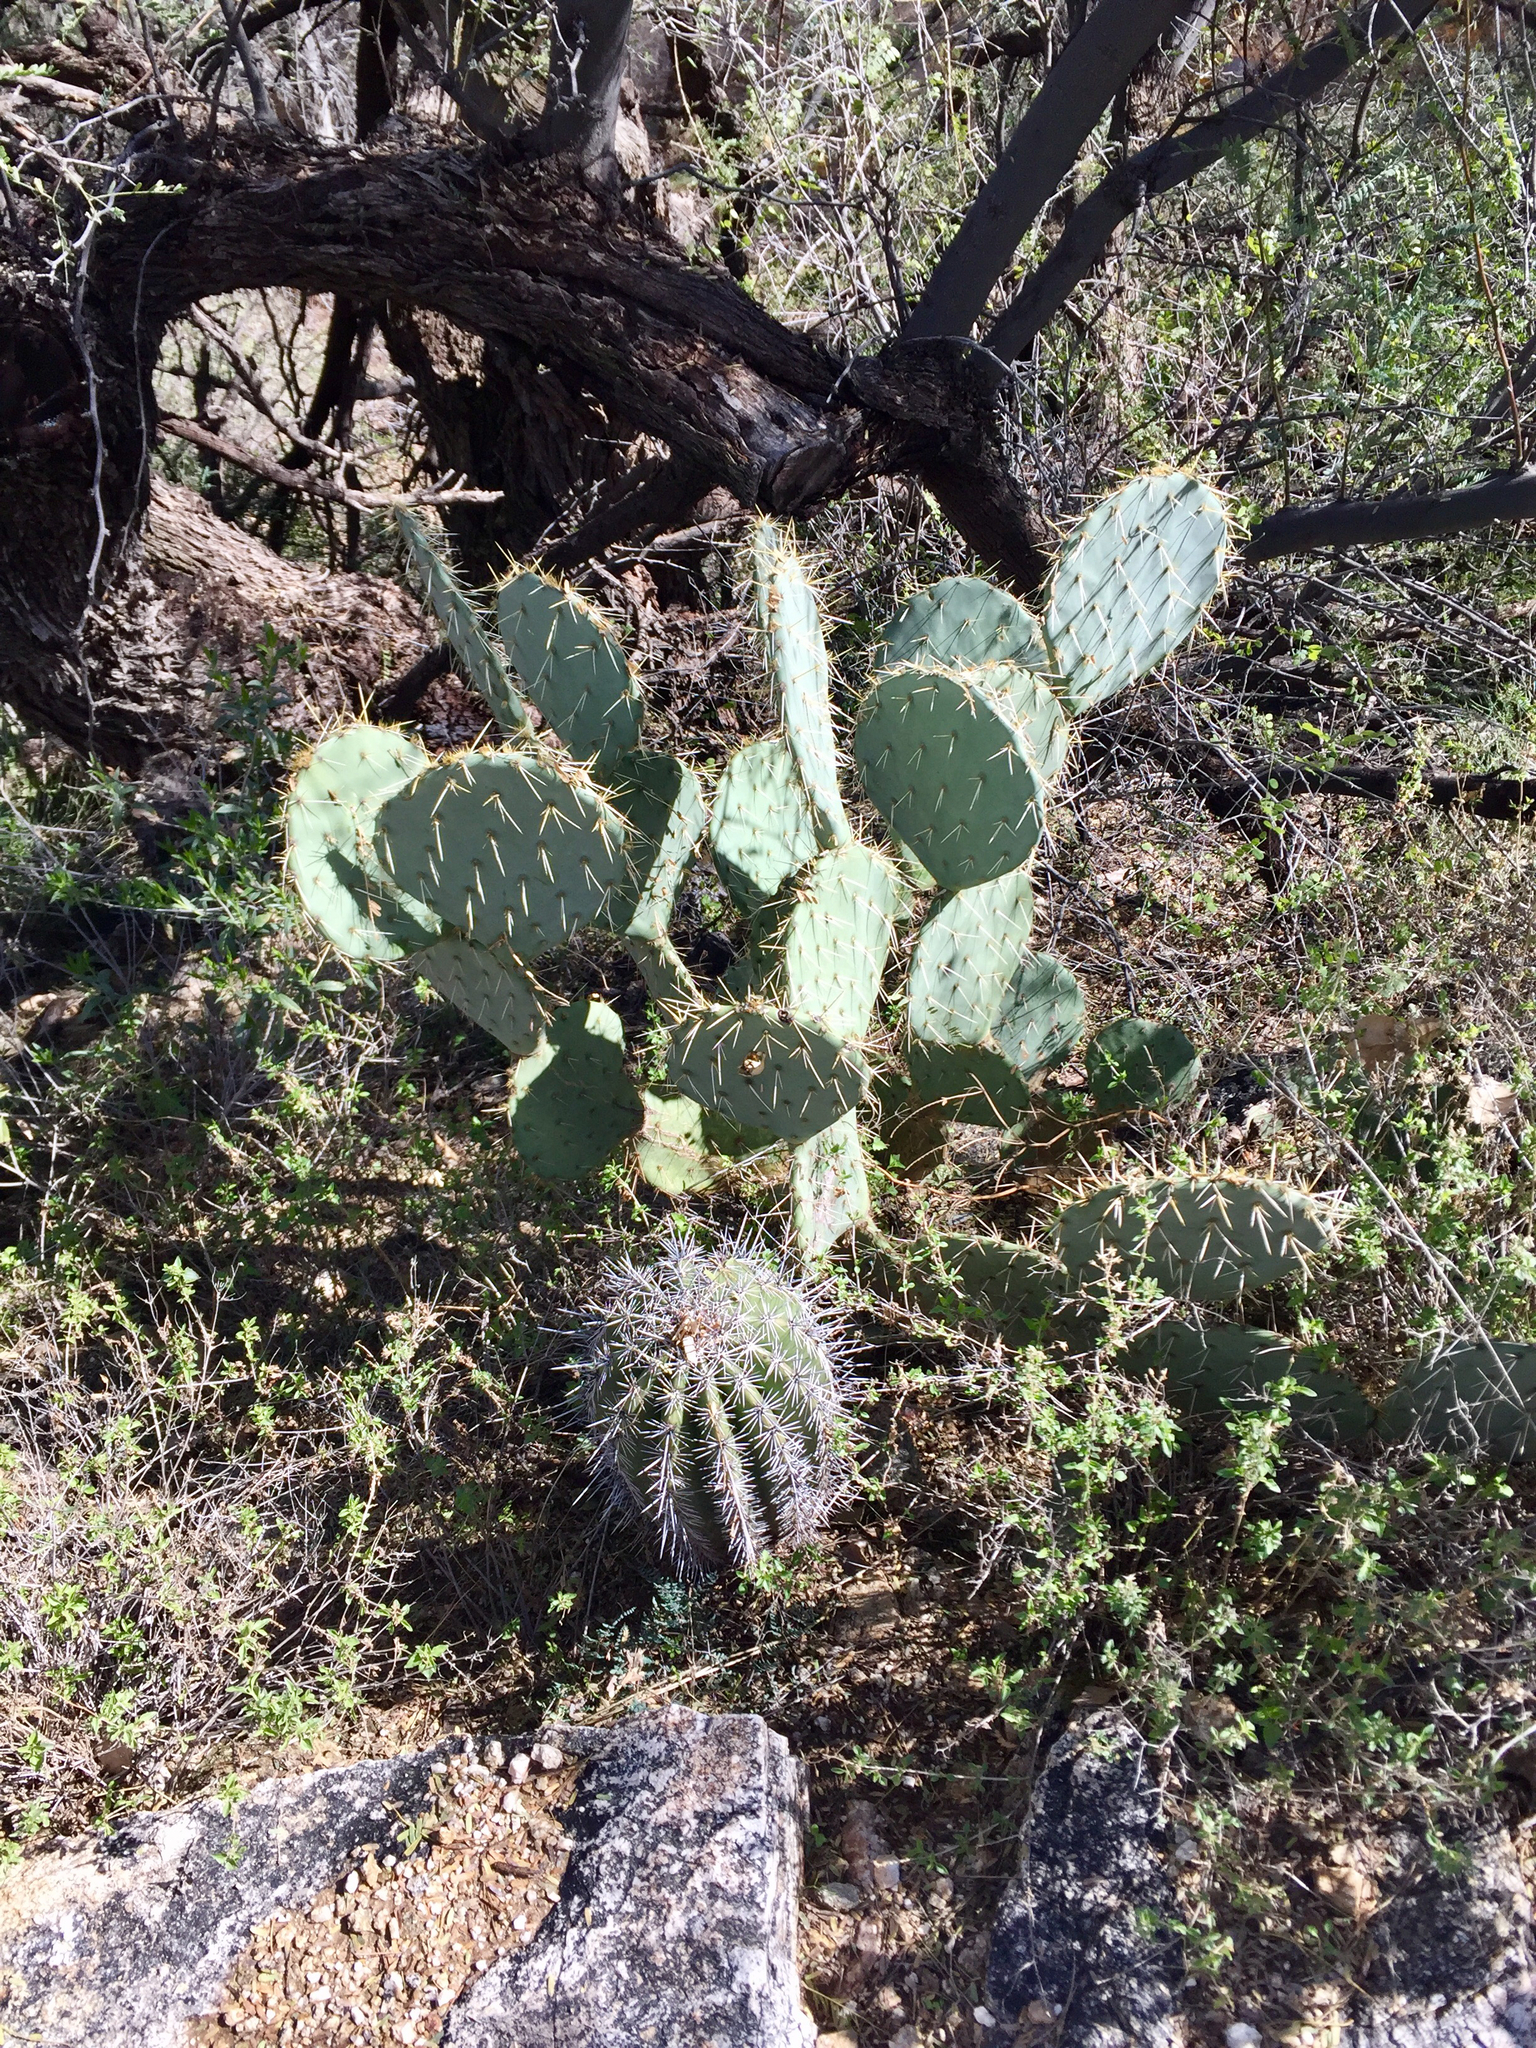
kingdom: Plantae
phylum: Tracheophyta
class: Magnoliopsida
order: Caryophyllales
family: Cactaceae
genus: Opuntia
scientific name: Opuntia engelmannii
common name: Cactus-apple
